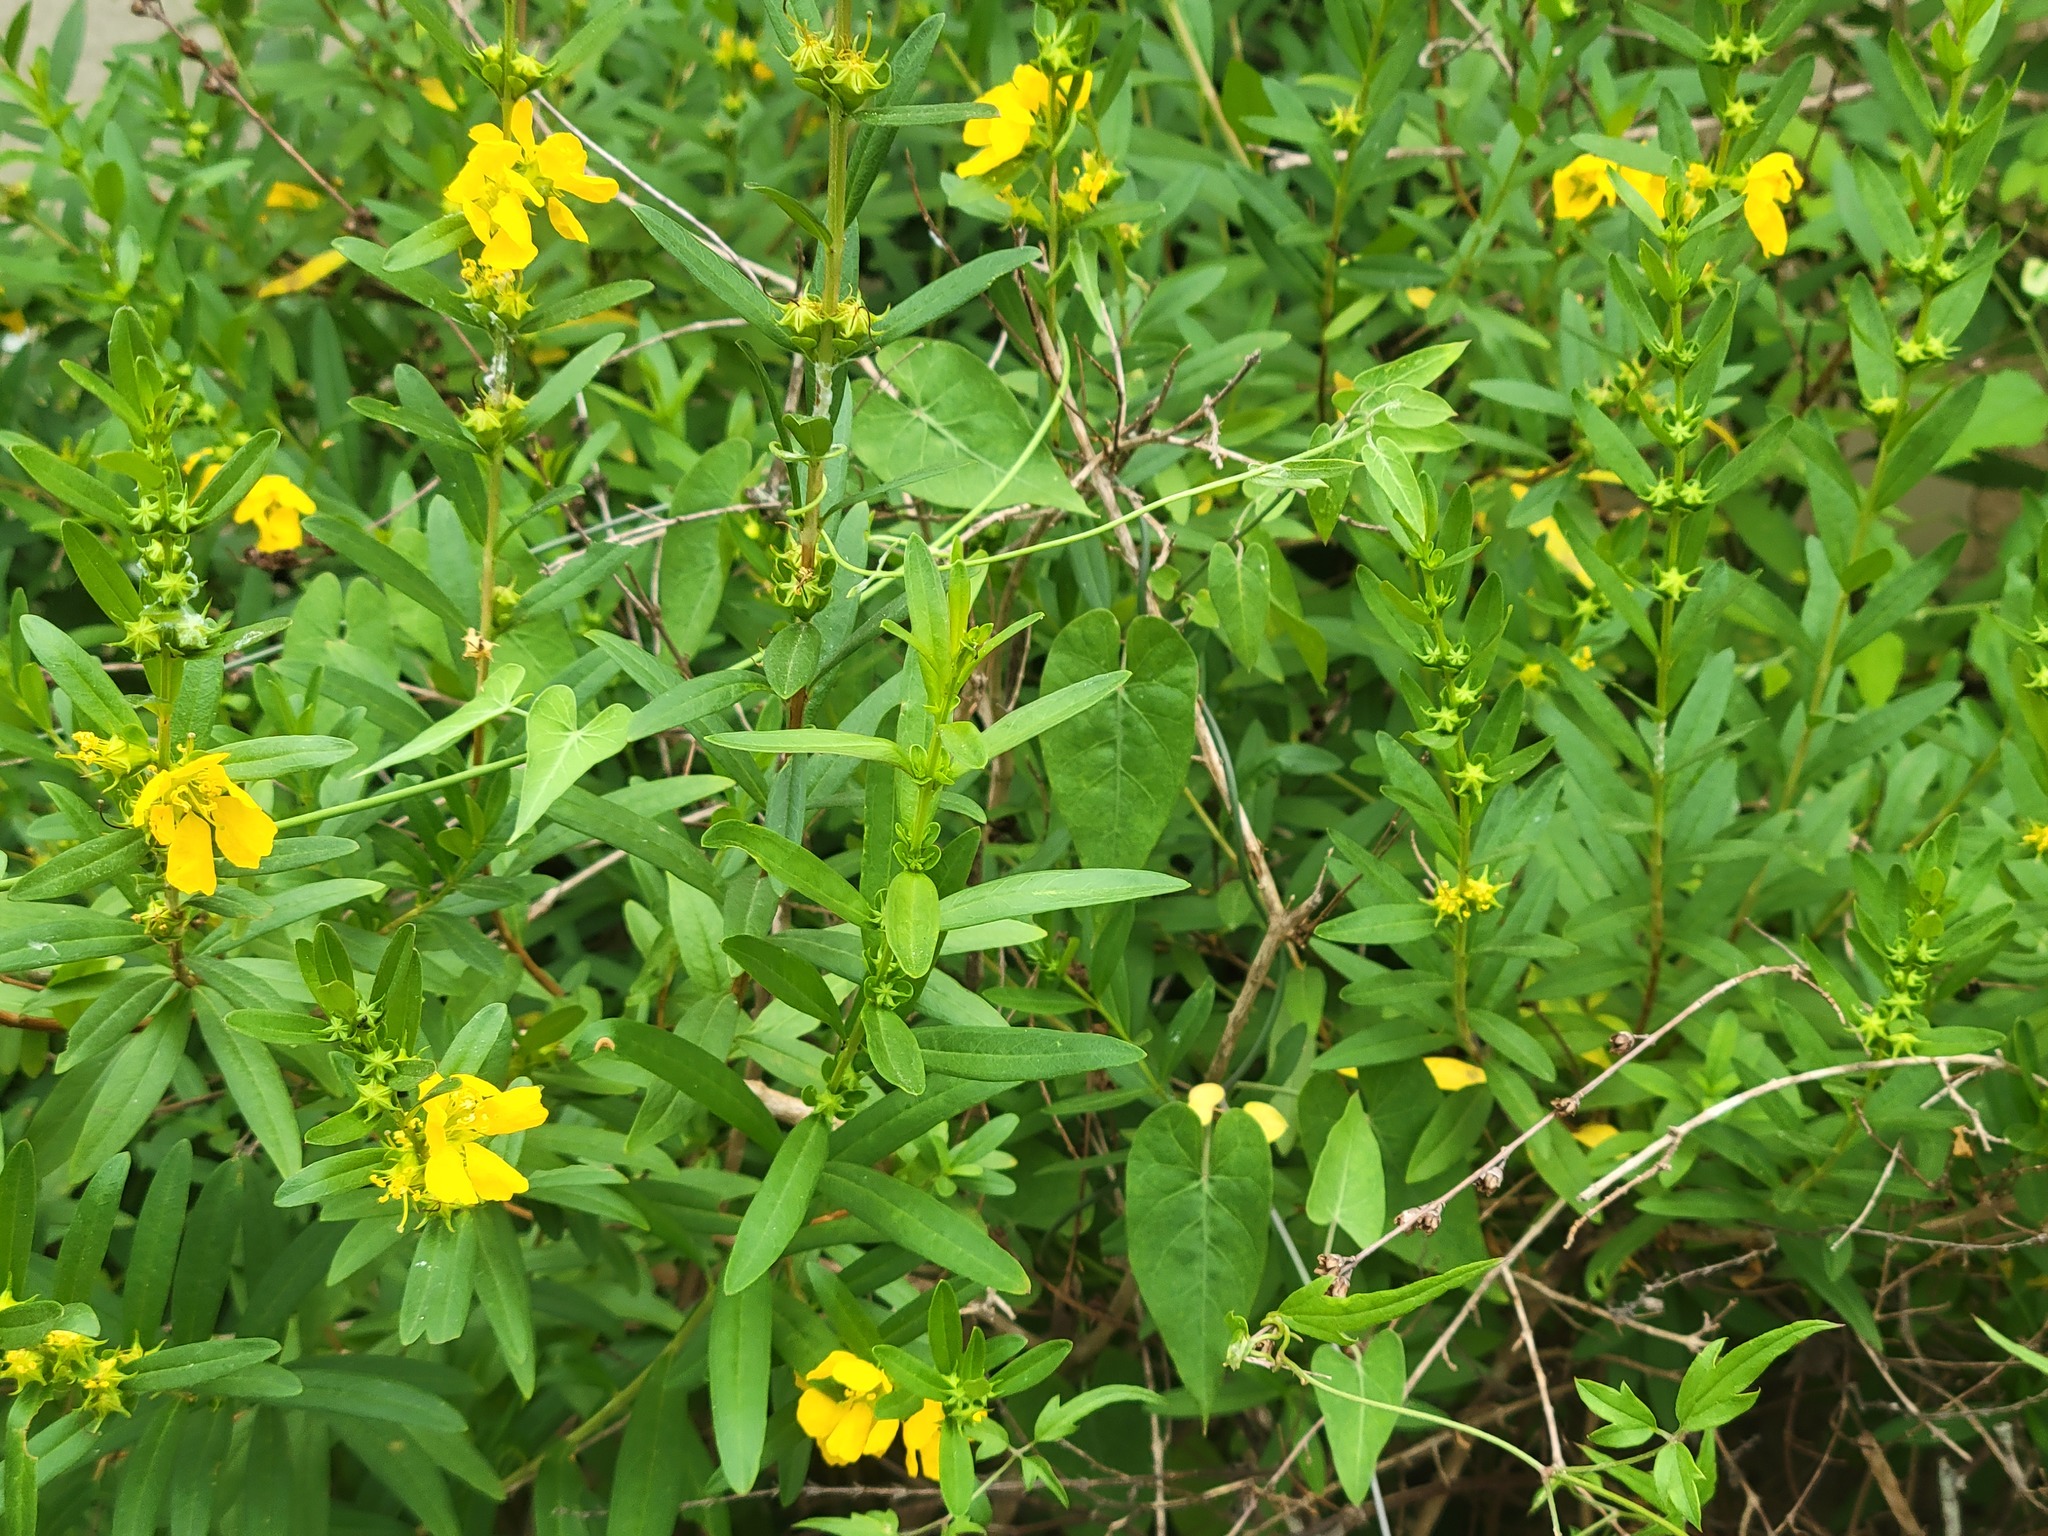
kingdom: Plantae
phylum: Tracheophyta
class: Magnoliopsida
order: Myrtales
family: Lythraceae
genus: Heimia
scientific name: Heimia salicifolia
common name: Willow-leaf heimia
